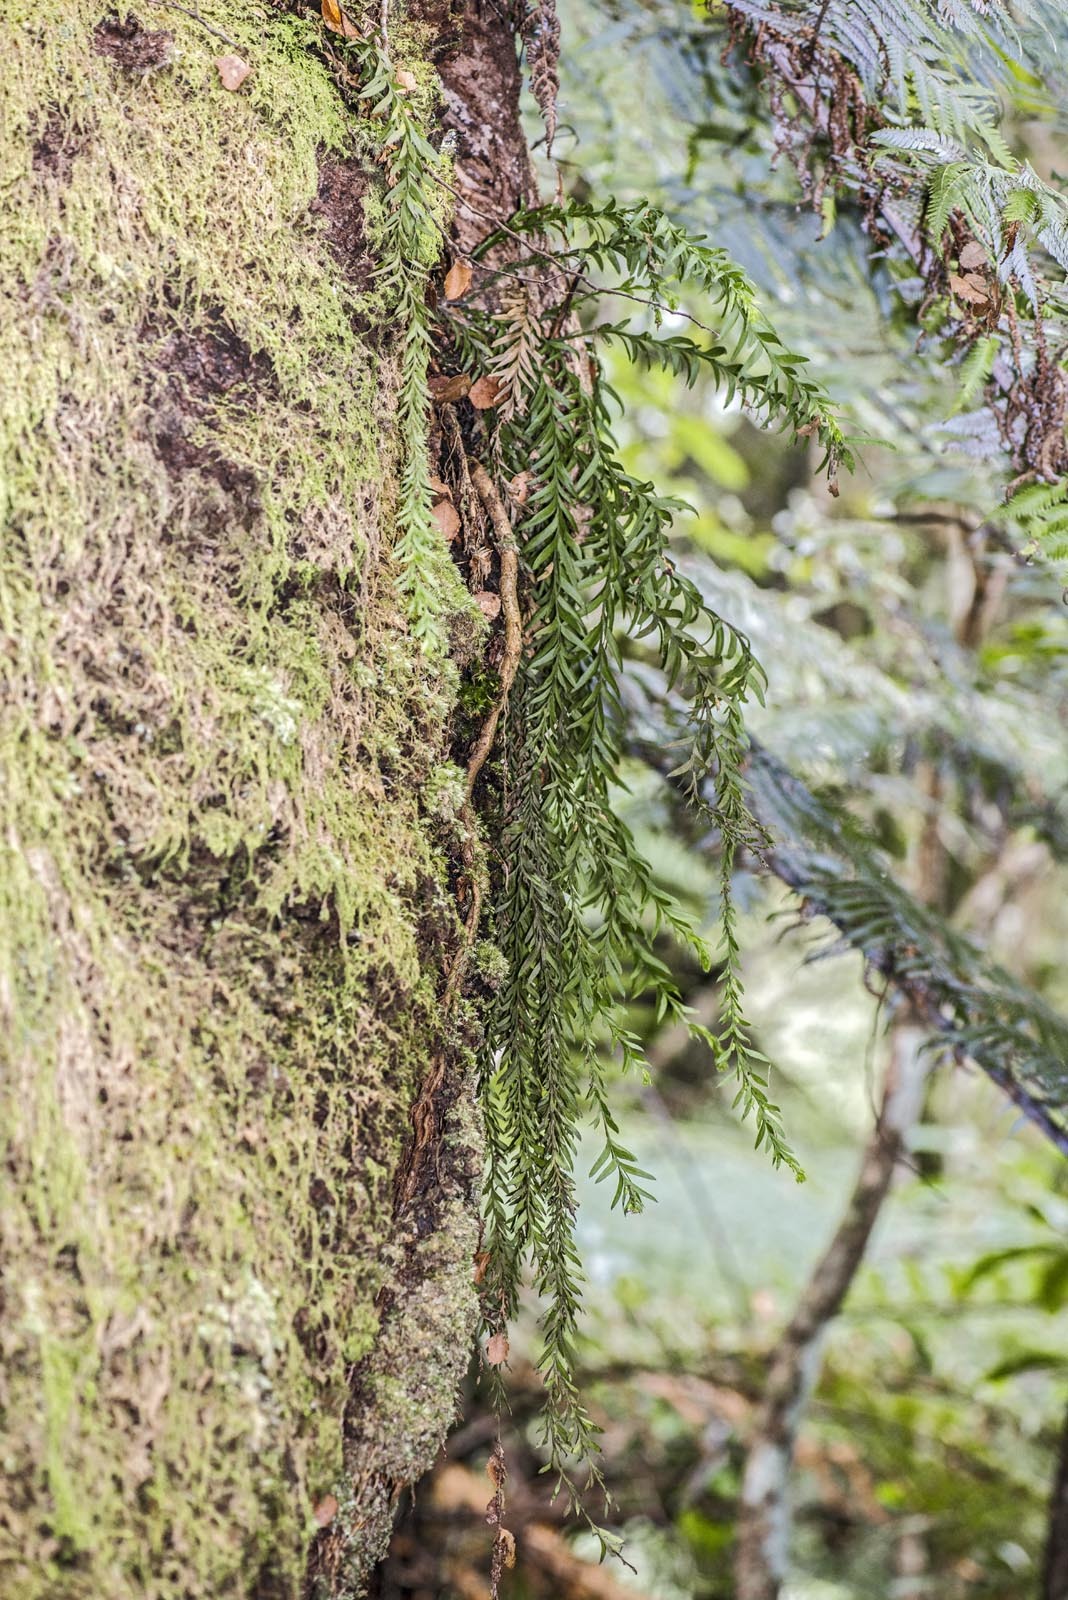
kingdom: Plantae
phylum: Tracheophyta
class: Polypodiopsida
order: Psilotales
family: Psilotaceae
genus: Tmesipteris
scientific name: Tmesipteris elongata
